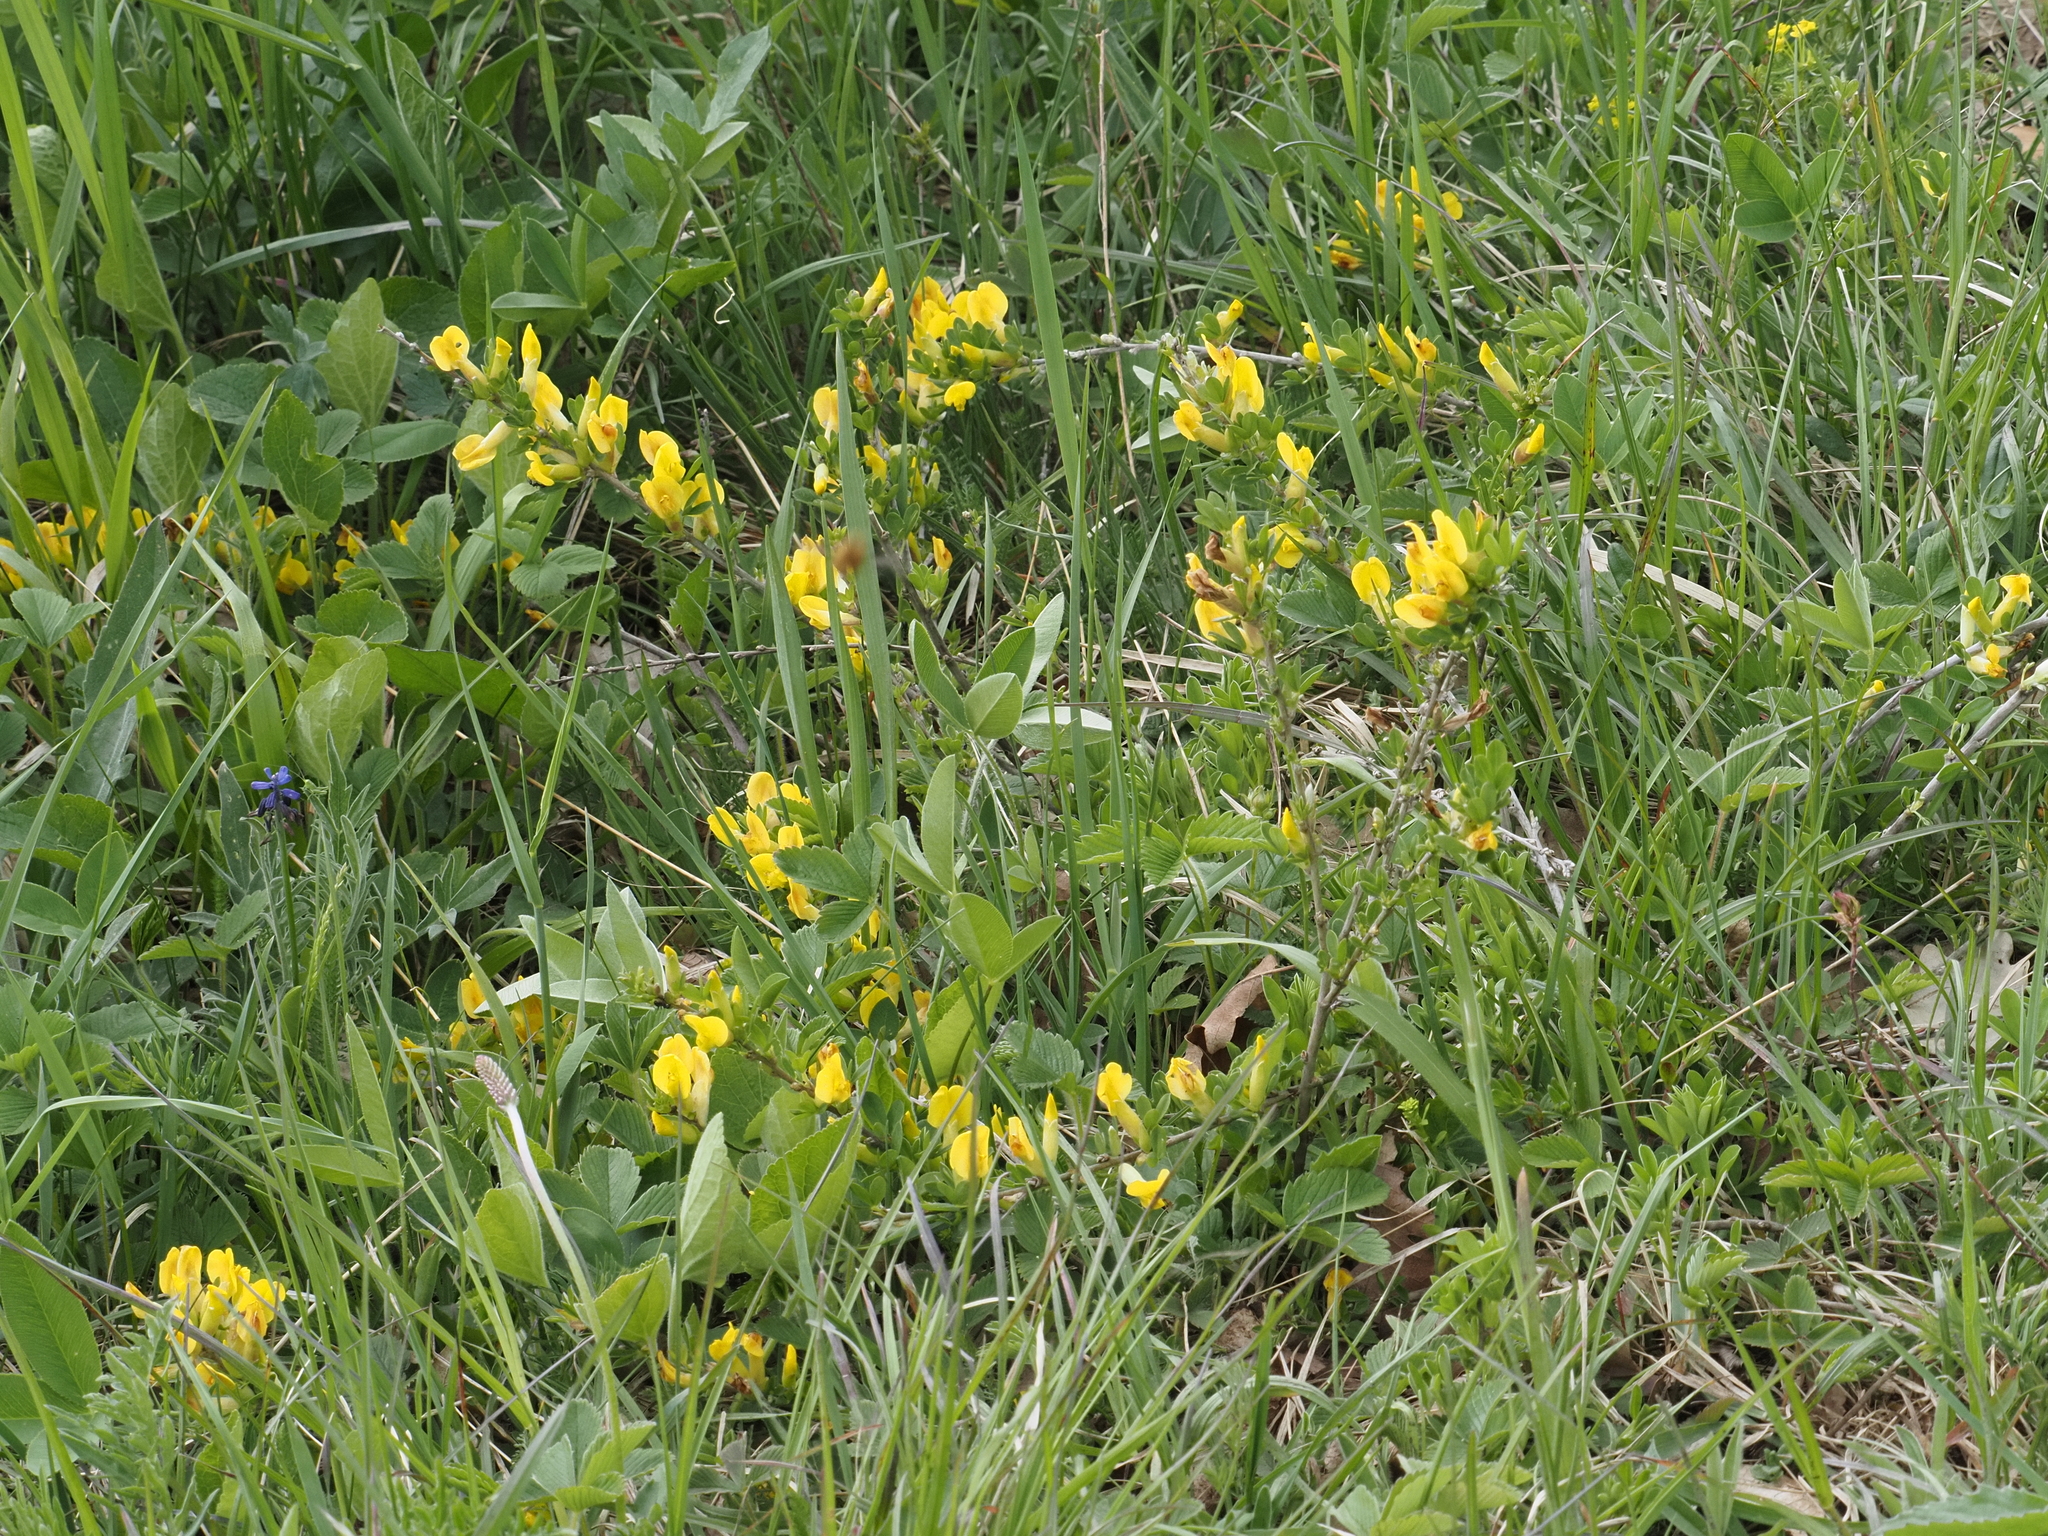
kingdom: Plantae
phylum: Tracheophyta
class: Magnoliopsida
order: Fabales
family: Fabaceae
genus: Chamaecytisus
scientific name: Chamaecytisus ratisbonensis
